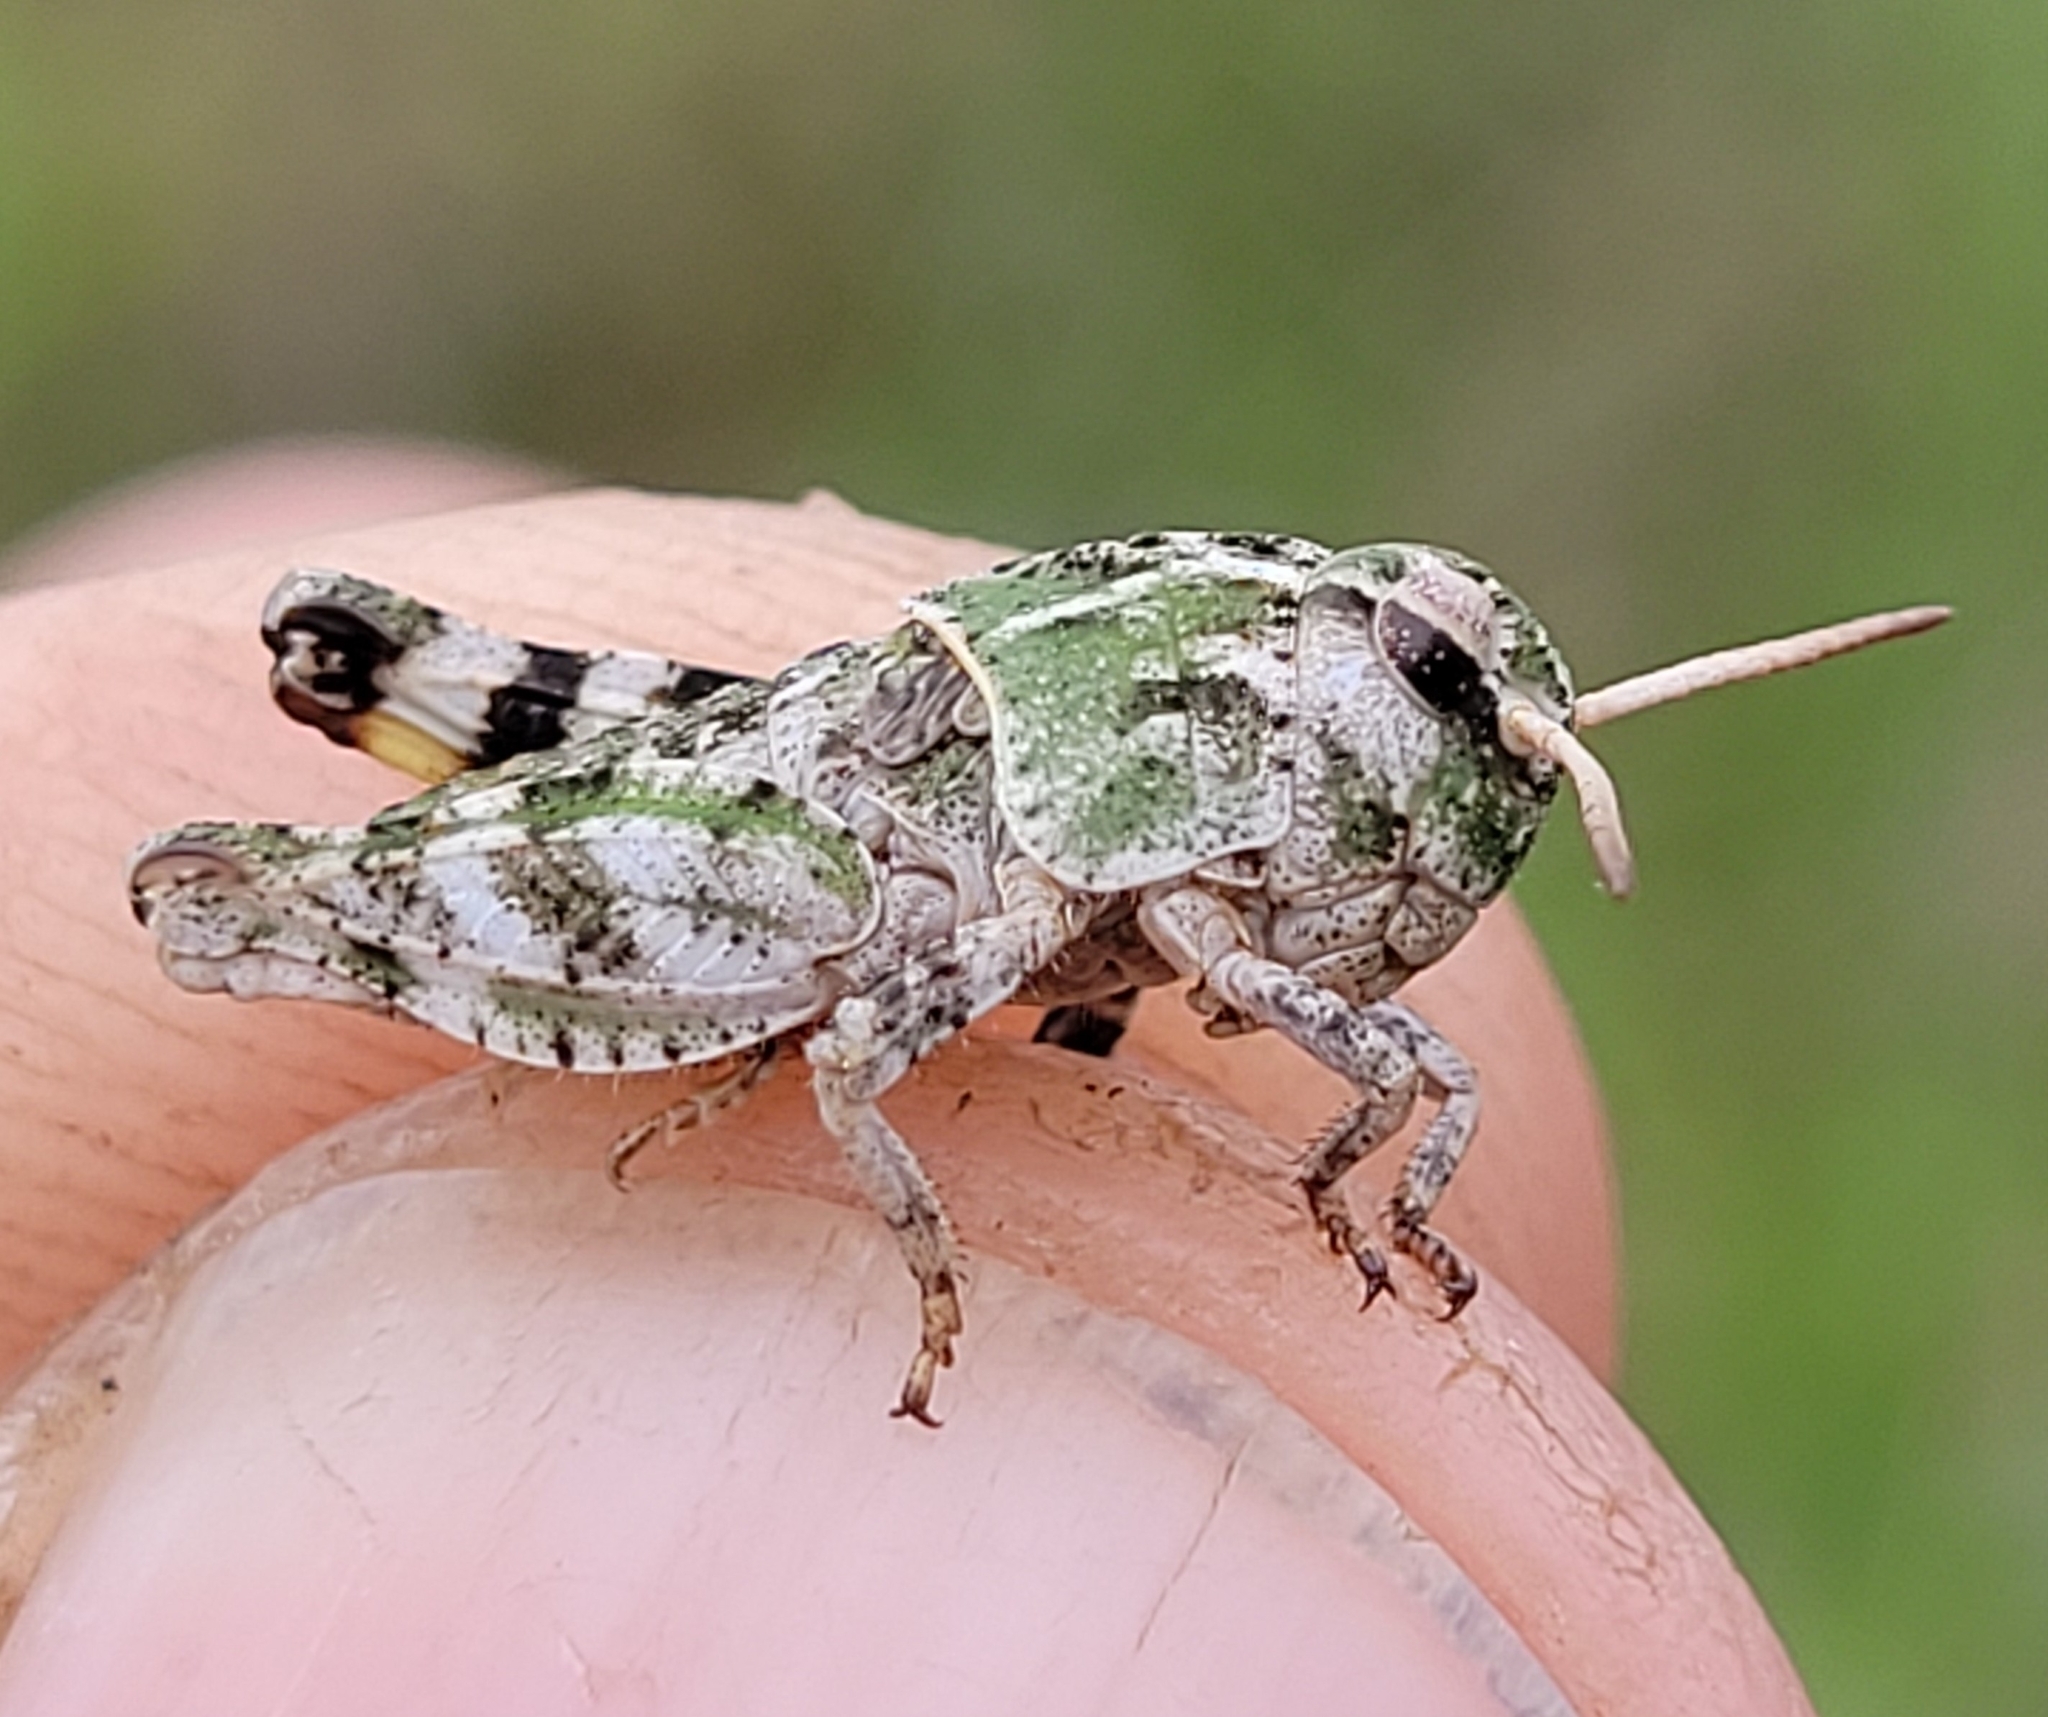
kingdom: Animalia
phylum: Arthropoda
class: Insecta
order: Orthoptera
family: Acrididae
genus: Pardalophora
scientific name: Pardalophora apiculata
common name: Coral-winged locust
